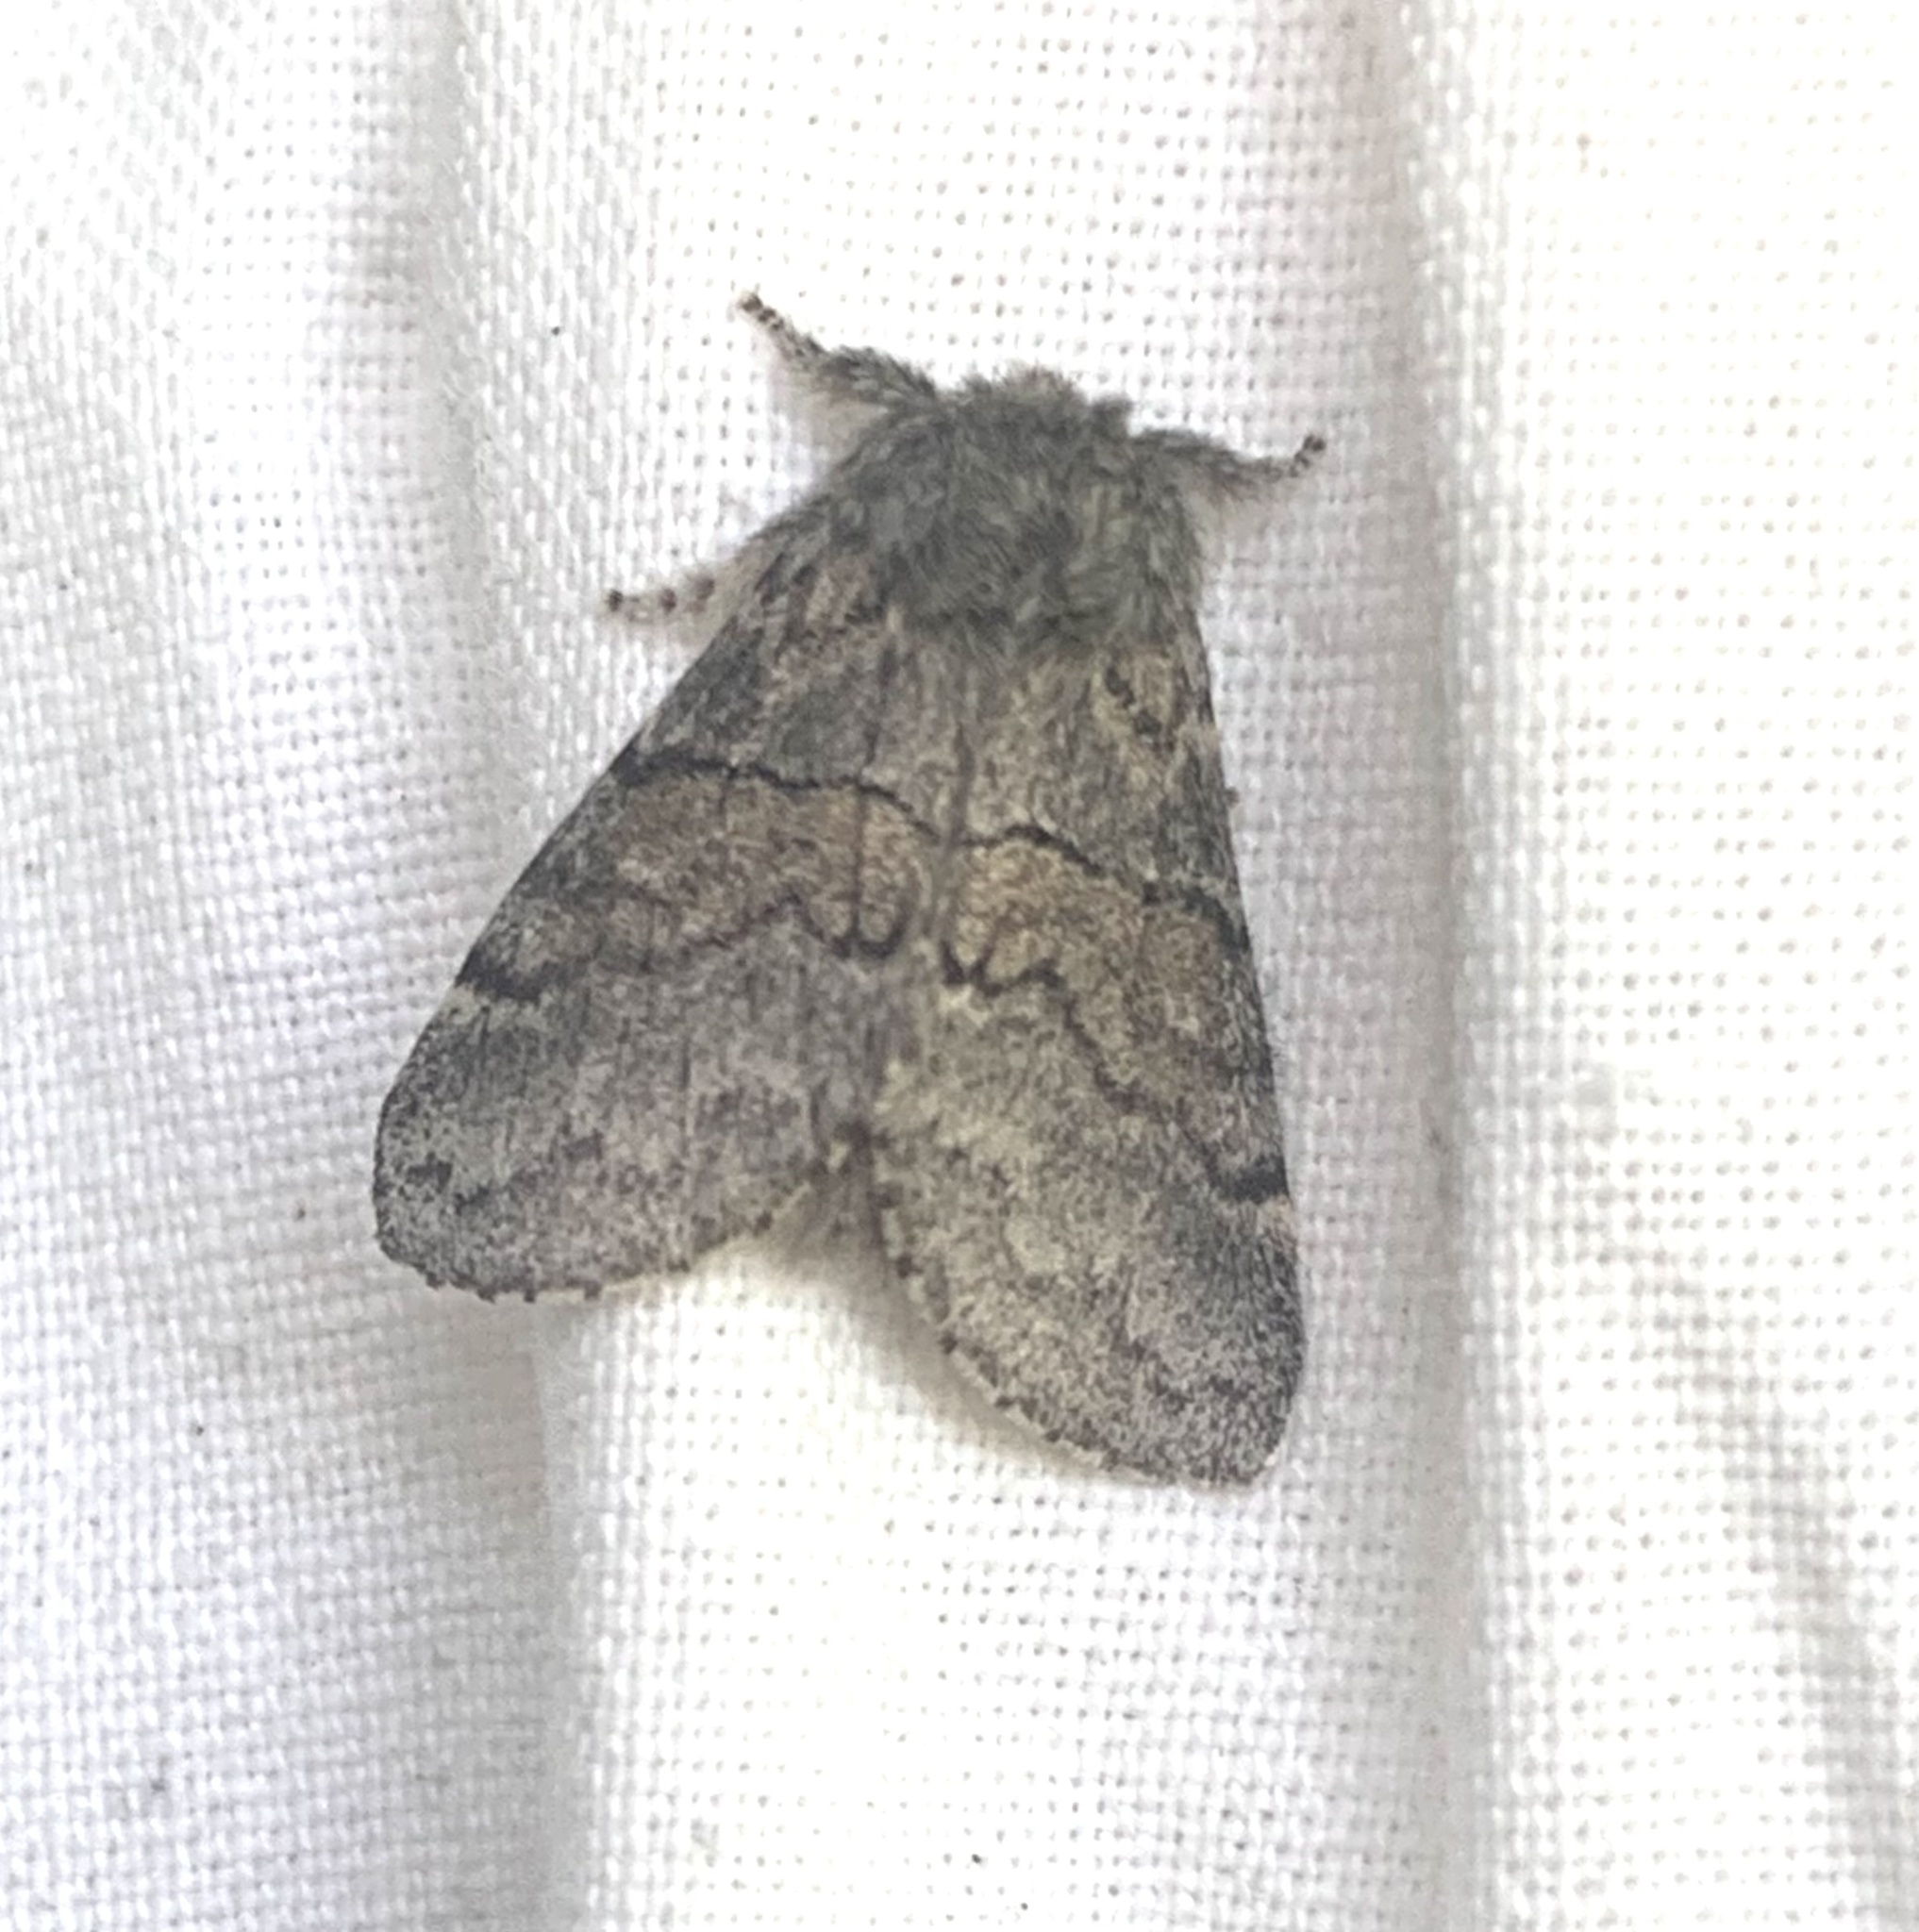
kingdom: Animalia
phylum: Arthropoda
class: Insecta
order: Lepidoptera
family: Notodontidae
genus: Gluphisia
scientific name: Gluphisia septentrionis
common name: Common gluphisia
